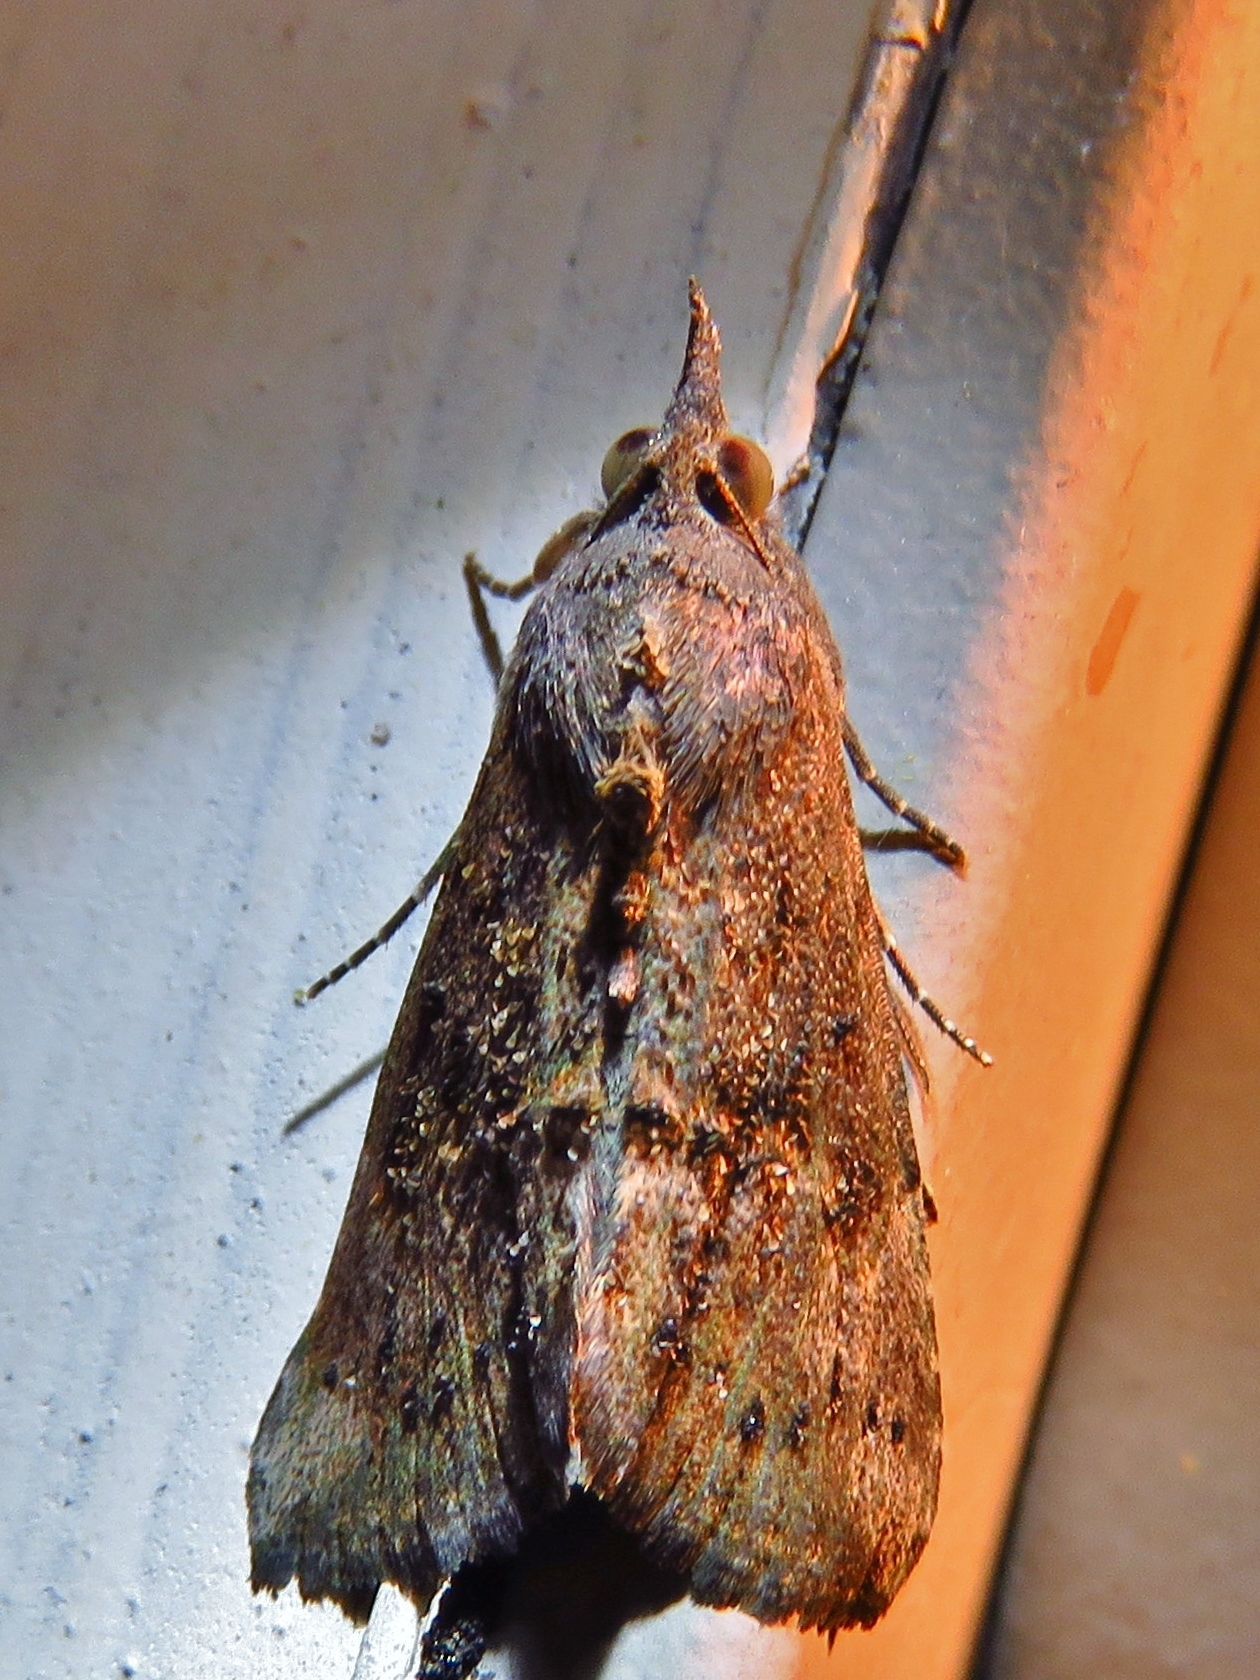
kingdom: Animalia
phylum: Arthropoda
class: Insecta
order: Lepidoptera
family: Erebidae
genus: Hypena
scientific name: Hypena scabra
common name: Green cloverworm
